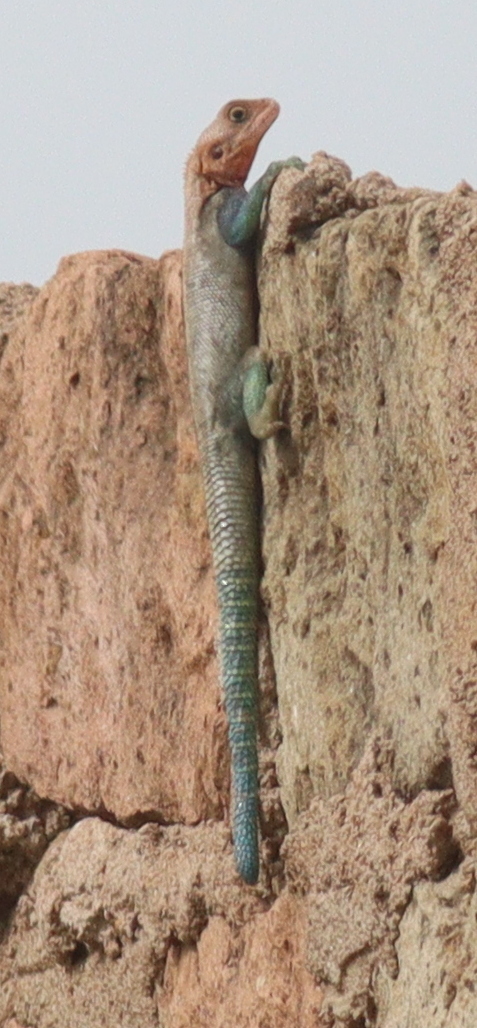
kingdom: Animalia
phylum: Chordata
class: Squamata
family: Agamidae
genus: Agama
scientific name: Agama lionotus
